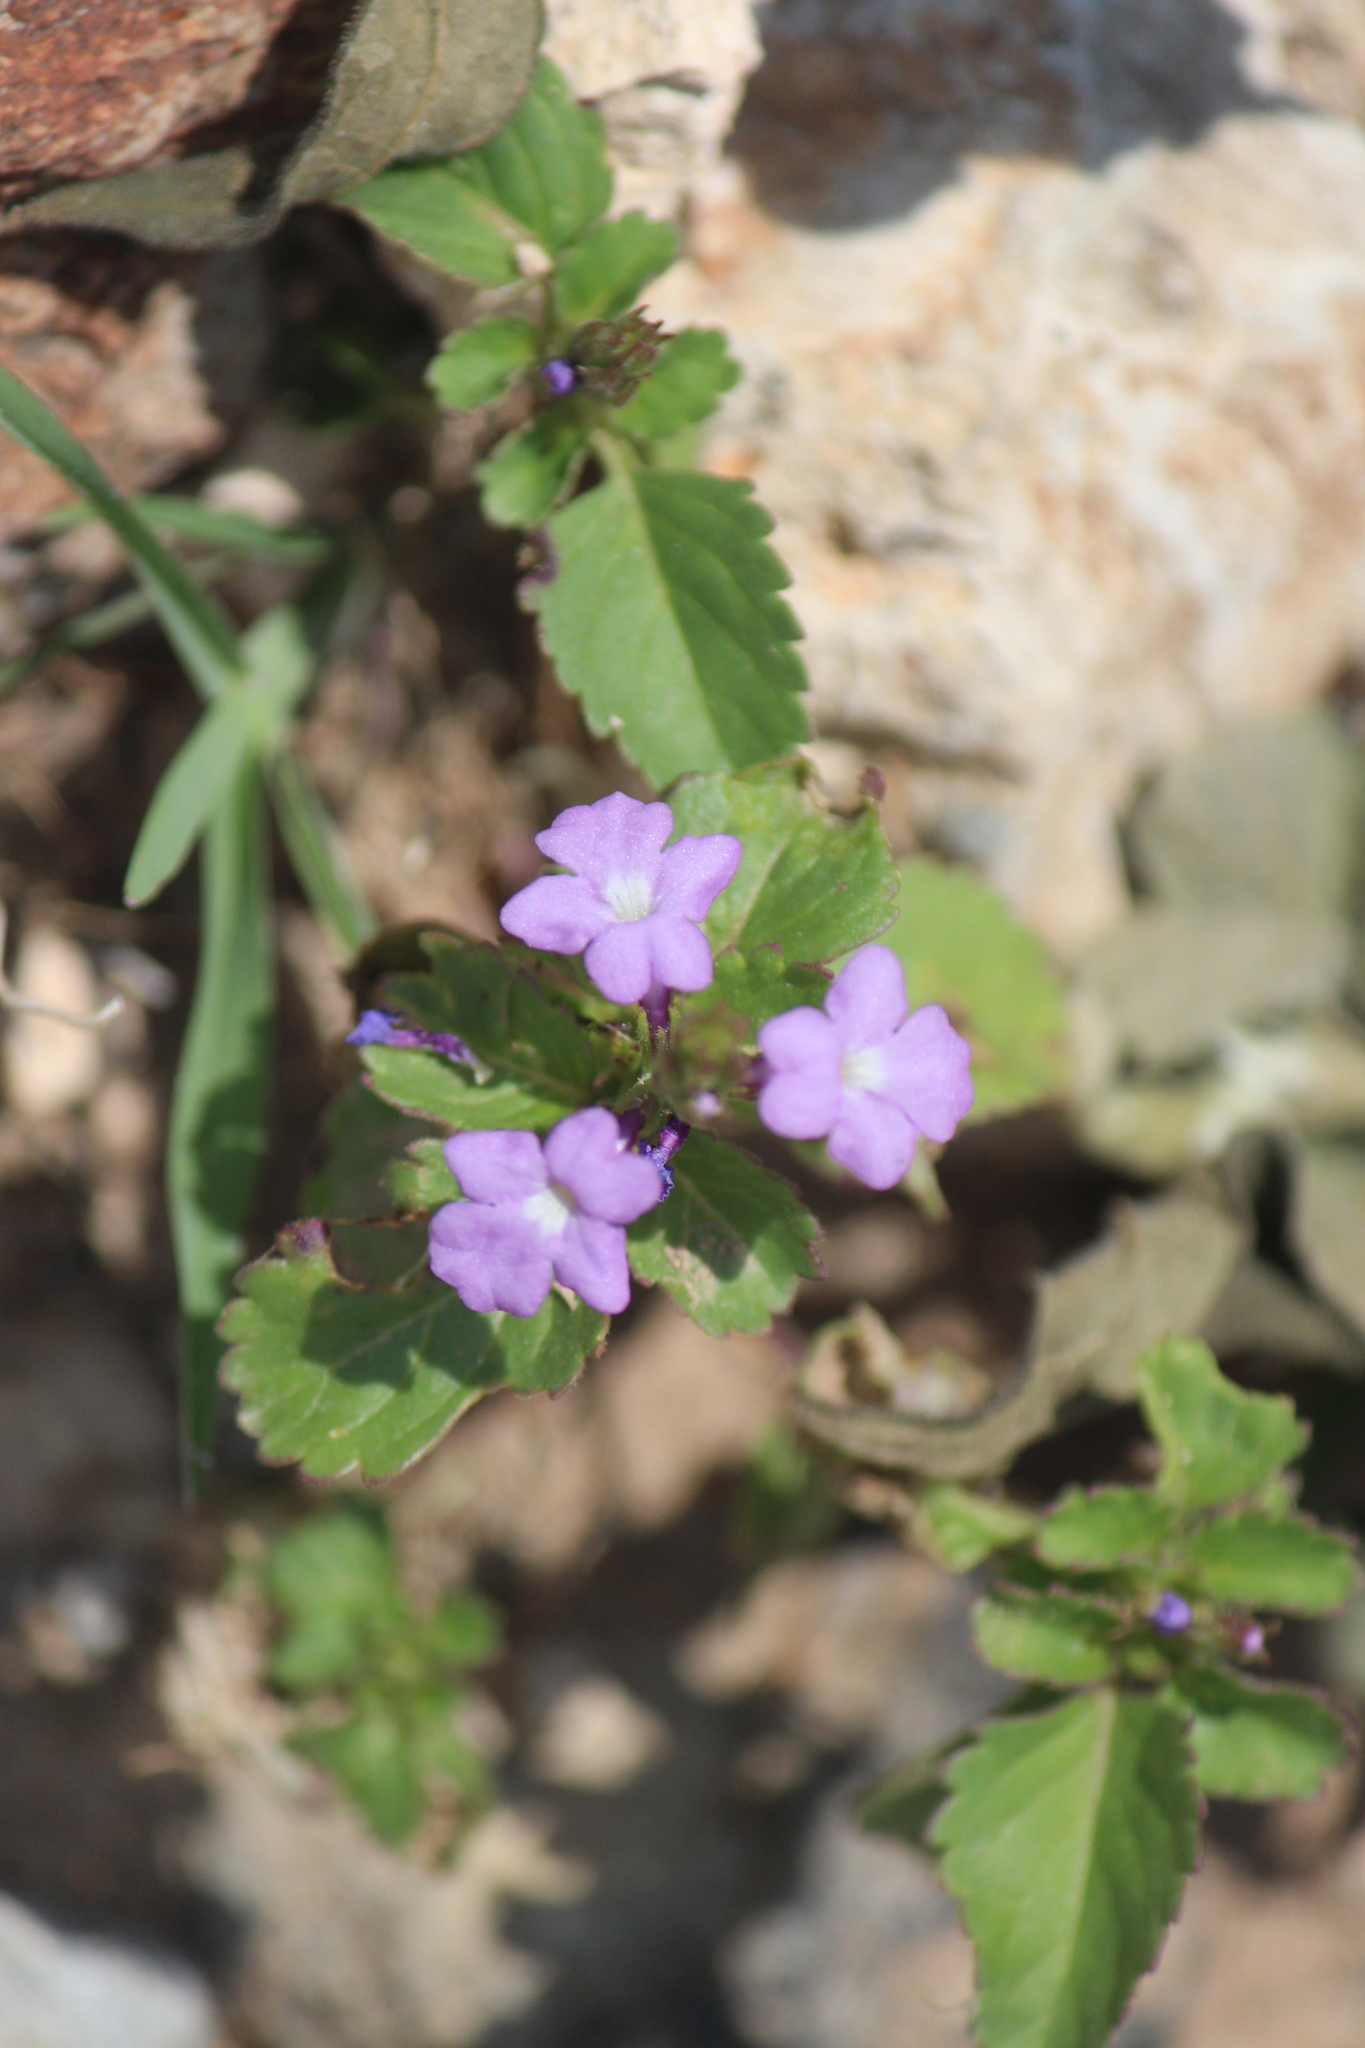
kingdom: Plantae
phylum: Tracheophyta
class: Magnoliopsida
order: Lamiales
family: Verbenaceae
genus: Bouchea
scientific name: Bouchea prismatica
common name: Vervine
